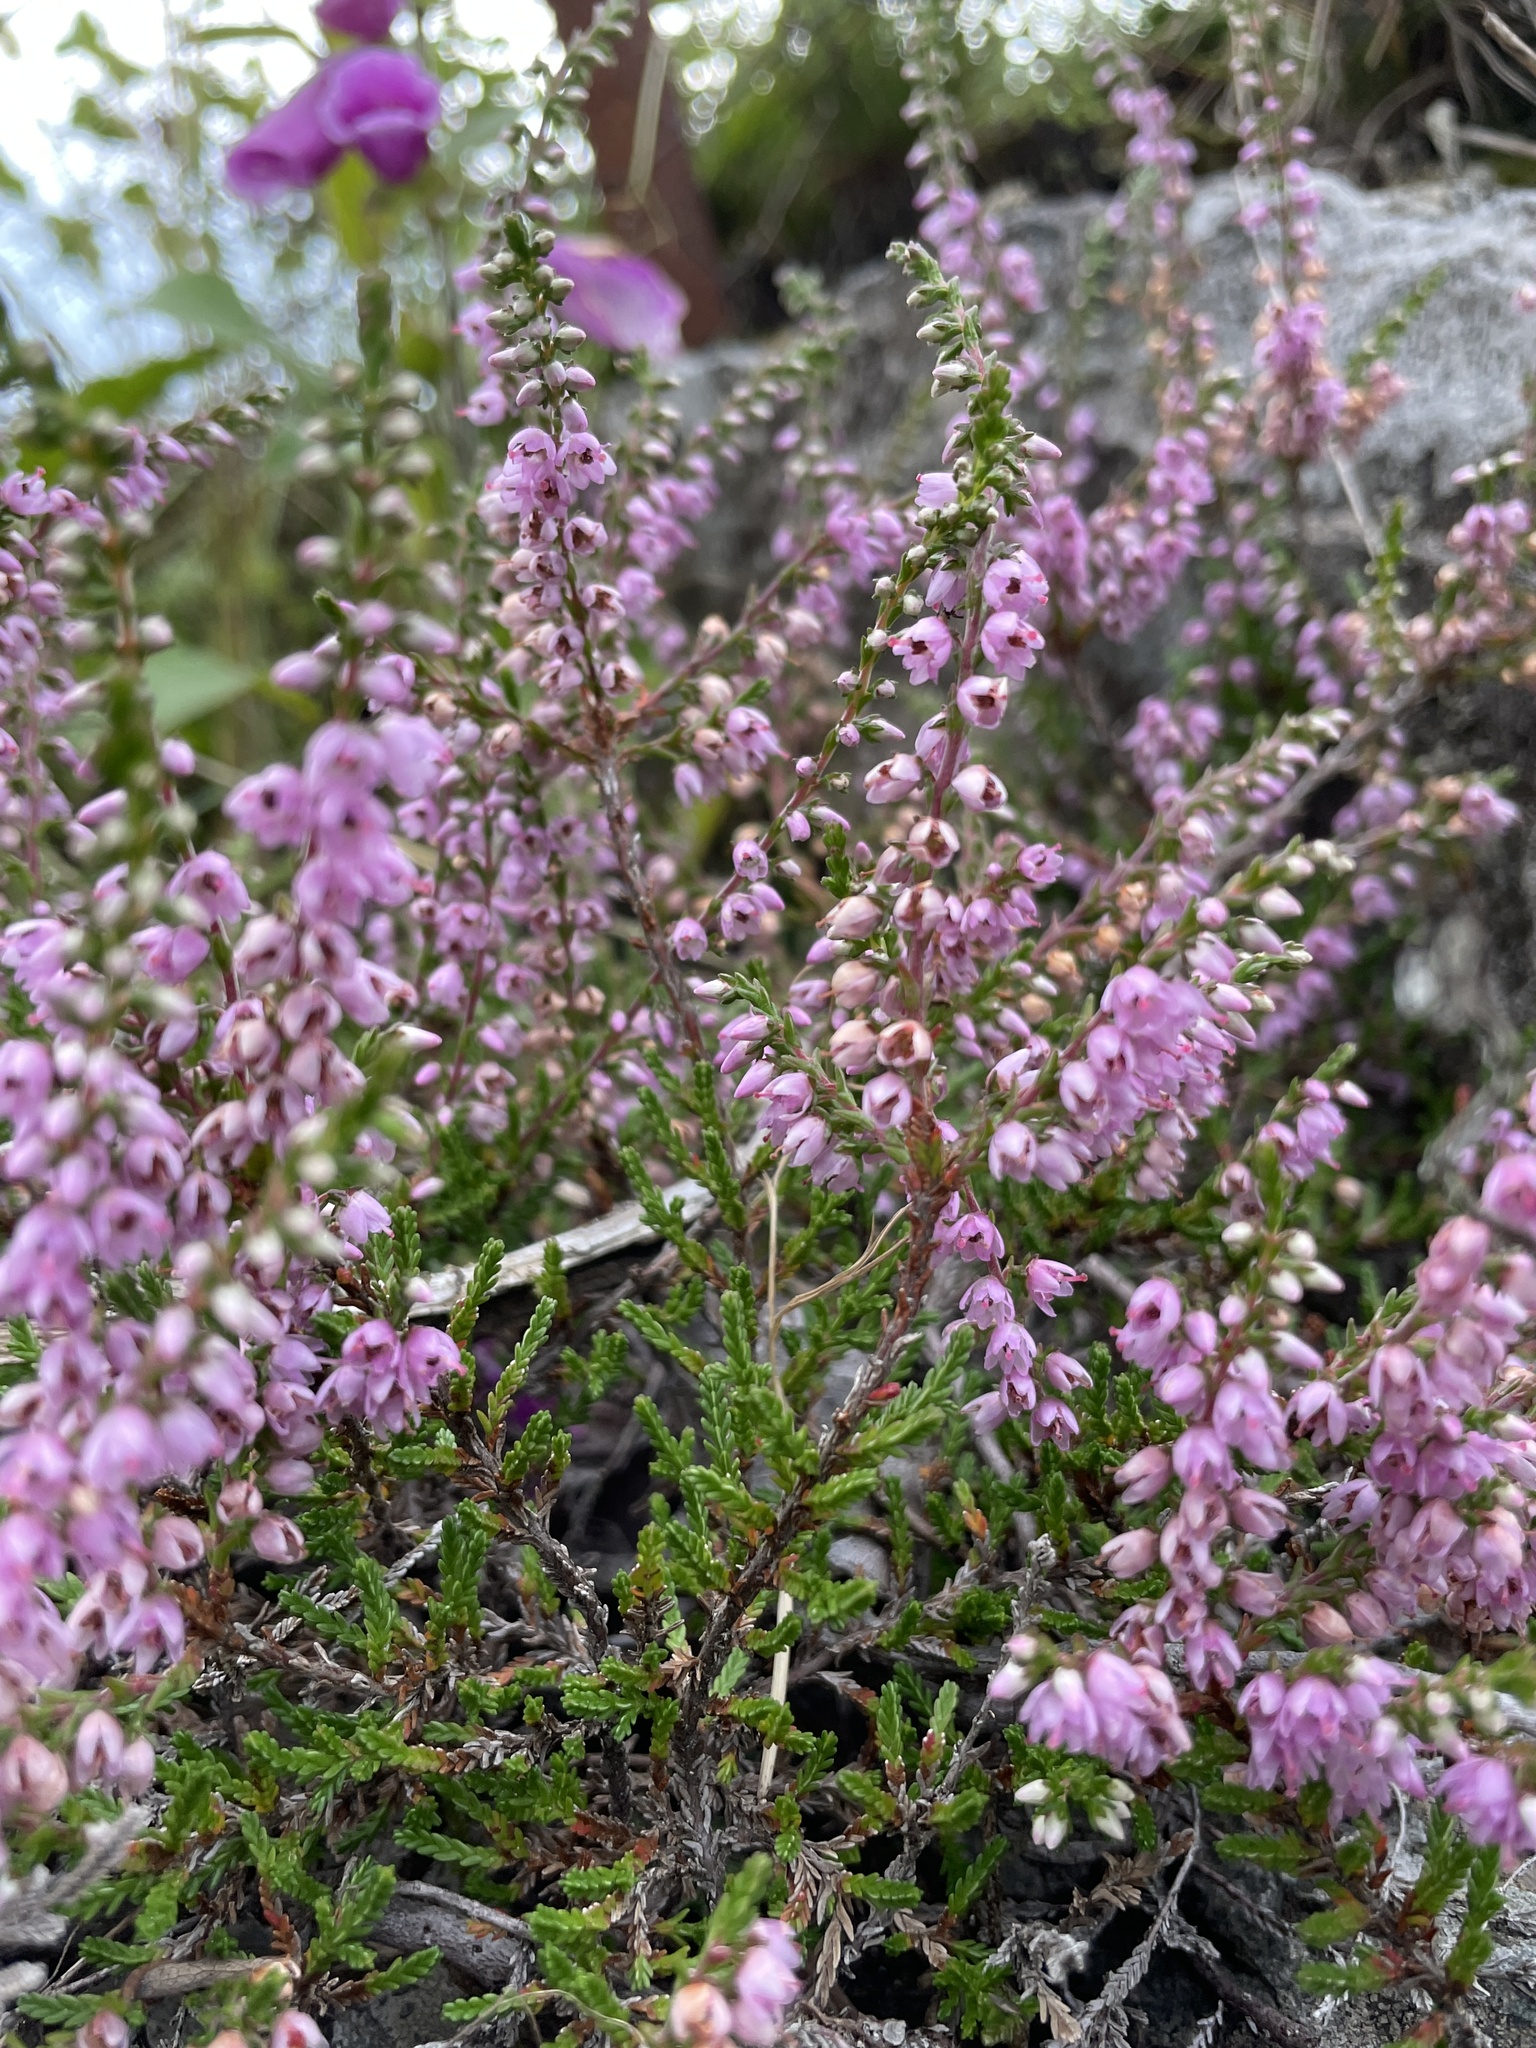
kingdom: Plantae
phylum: Tracheophyta
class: Magnoliopsida
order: Ericales
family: Ericaceae
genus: Calluna
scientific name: Calluna vulgaris
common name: Heather
